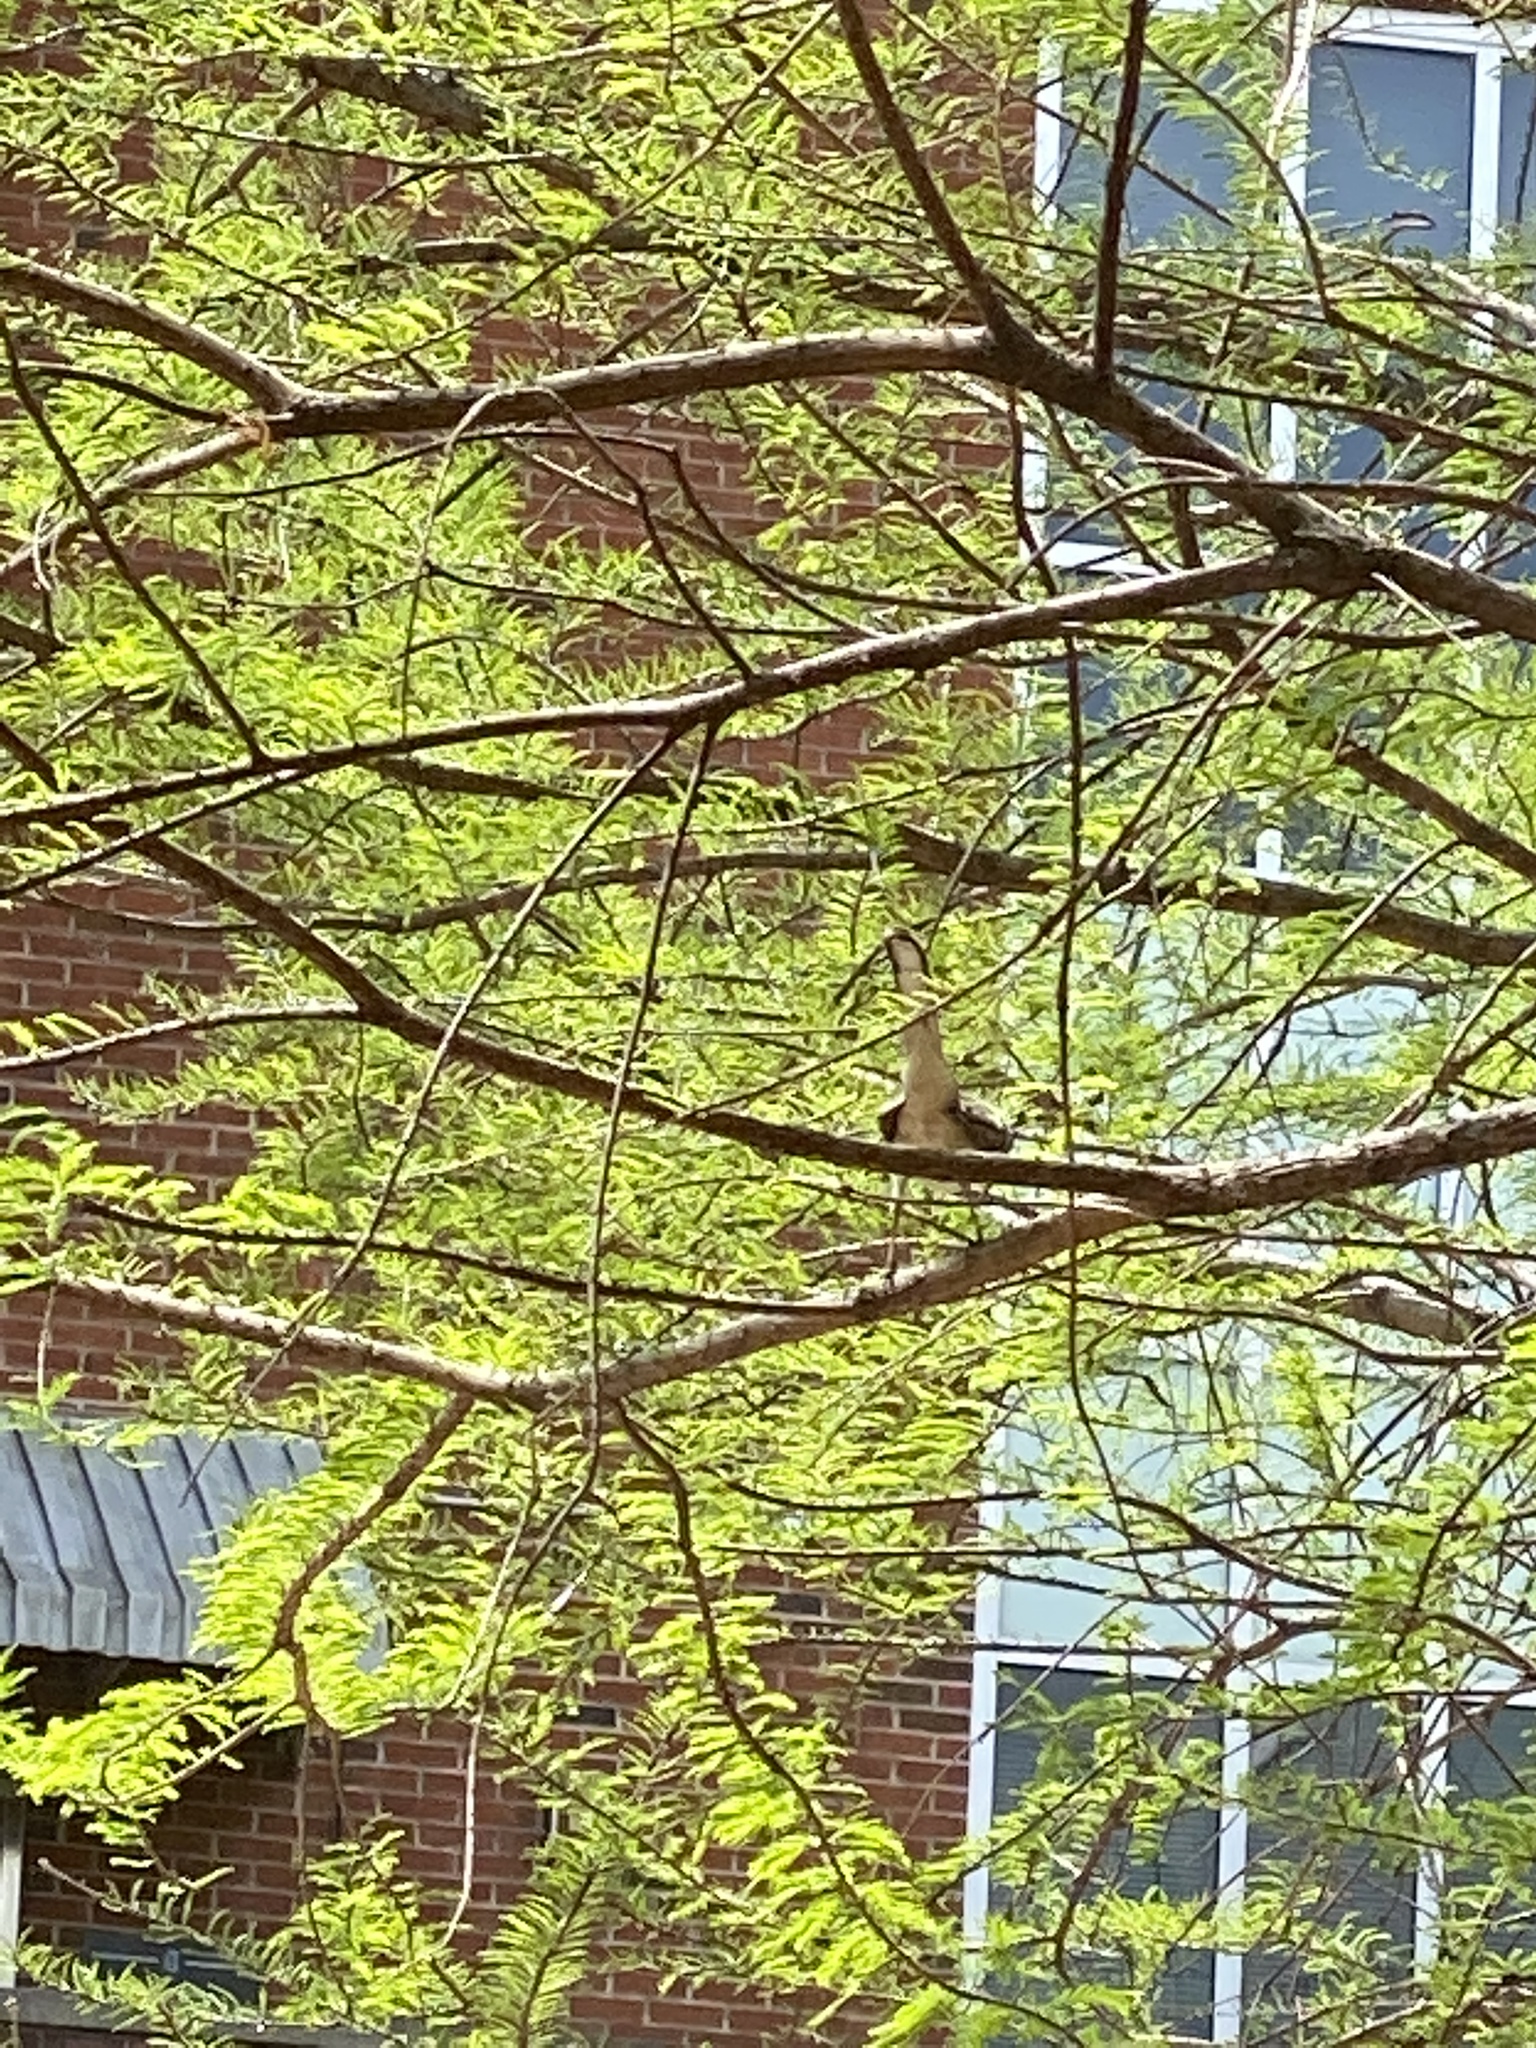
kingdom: Animalia
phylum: Chordata
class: Aves
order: Passeriformes
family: Mimidae
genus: Mimus
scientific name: Mimus polyglottos
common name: Northern mockingbird
